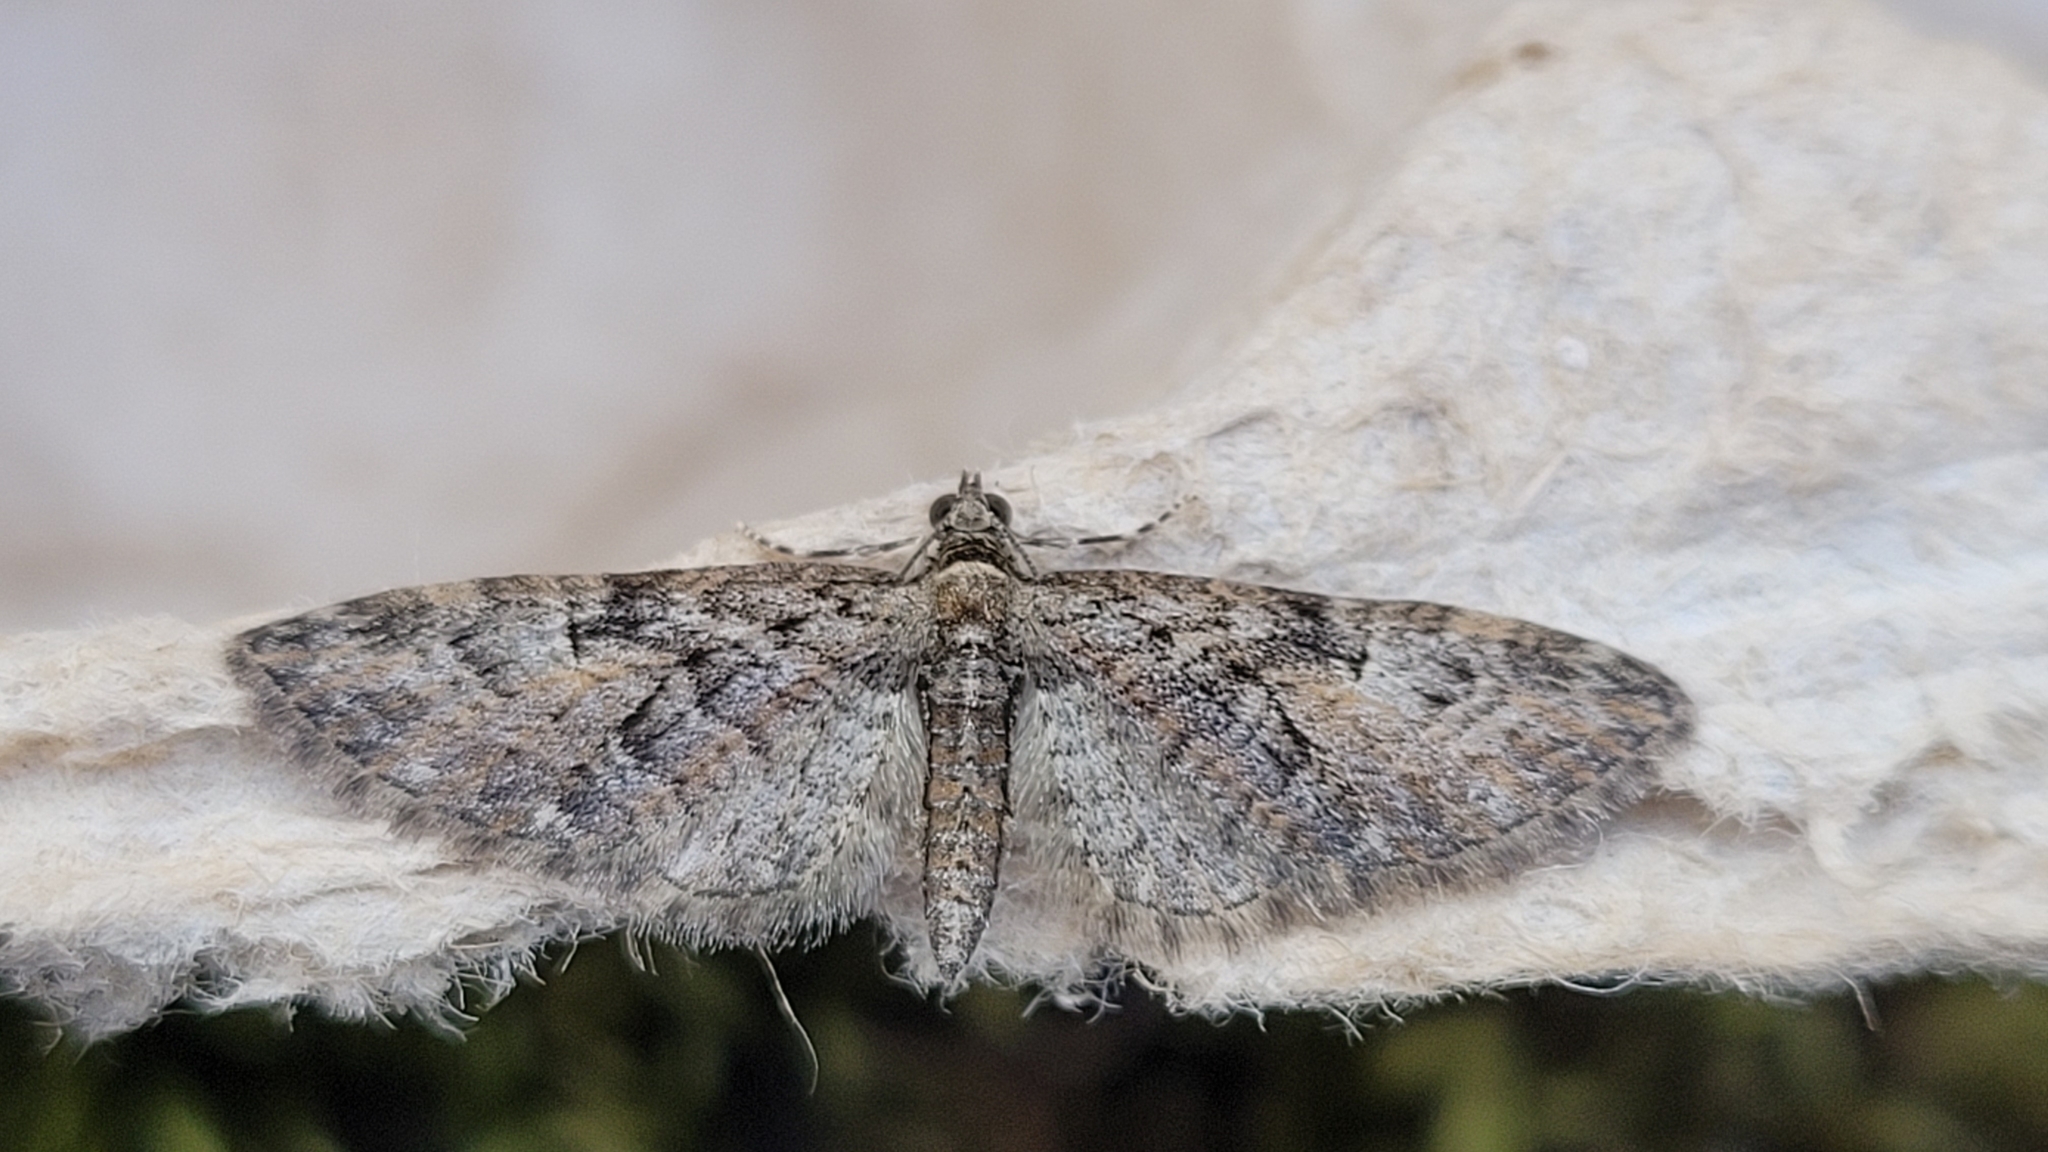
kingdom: Animalia
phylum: Arthropoda
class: Insecta
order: Lepidoptera
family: Geometridae
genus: Eupithecia
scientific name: Eupithecia abbreviata
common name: Brindled pug
